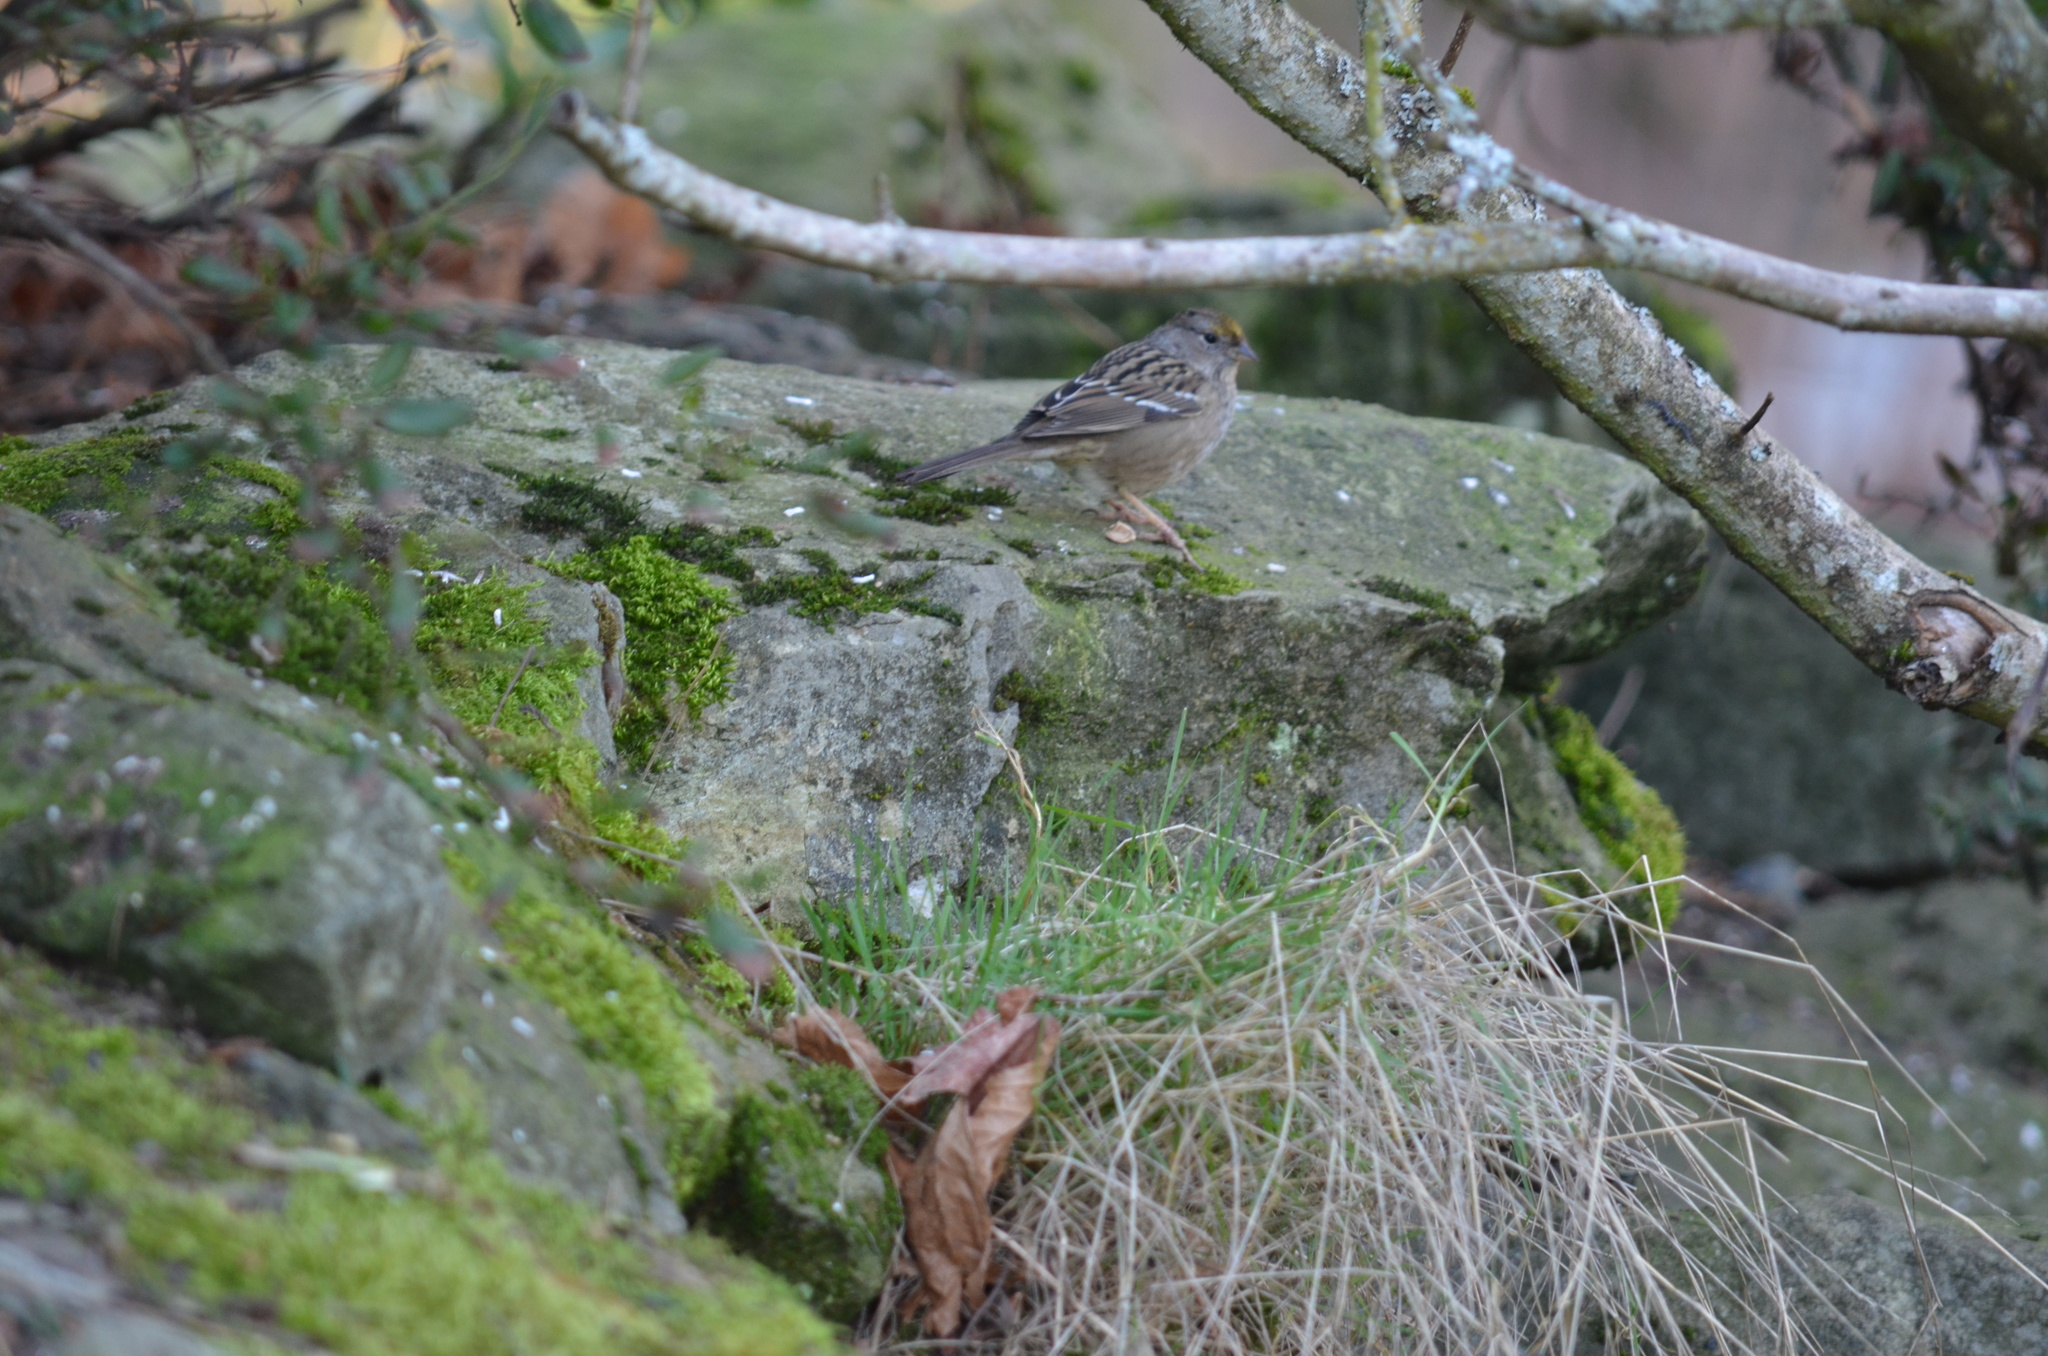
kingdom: Animalia
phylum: Chordata
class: Aves
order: Passeriformes
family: Passerellidae
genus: Zonotrichia
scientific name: Zonotrichia atricapilla
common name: Golden-crowned sparrow
